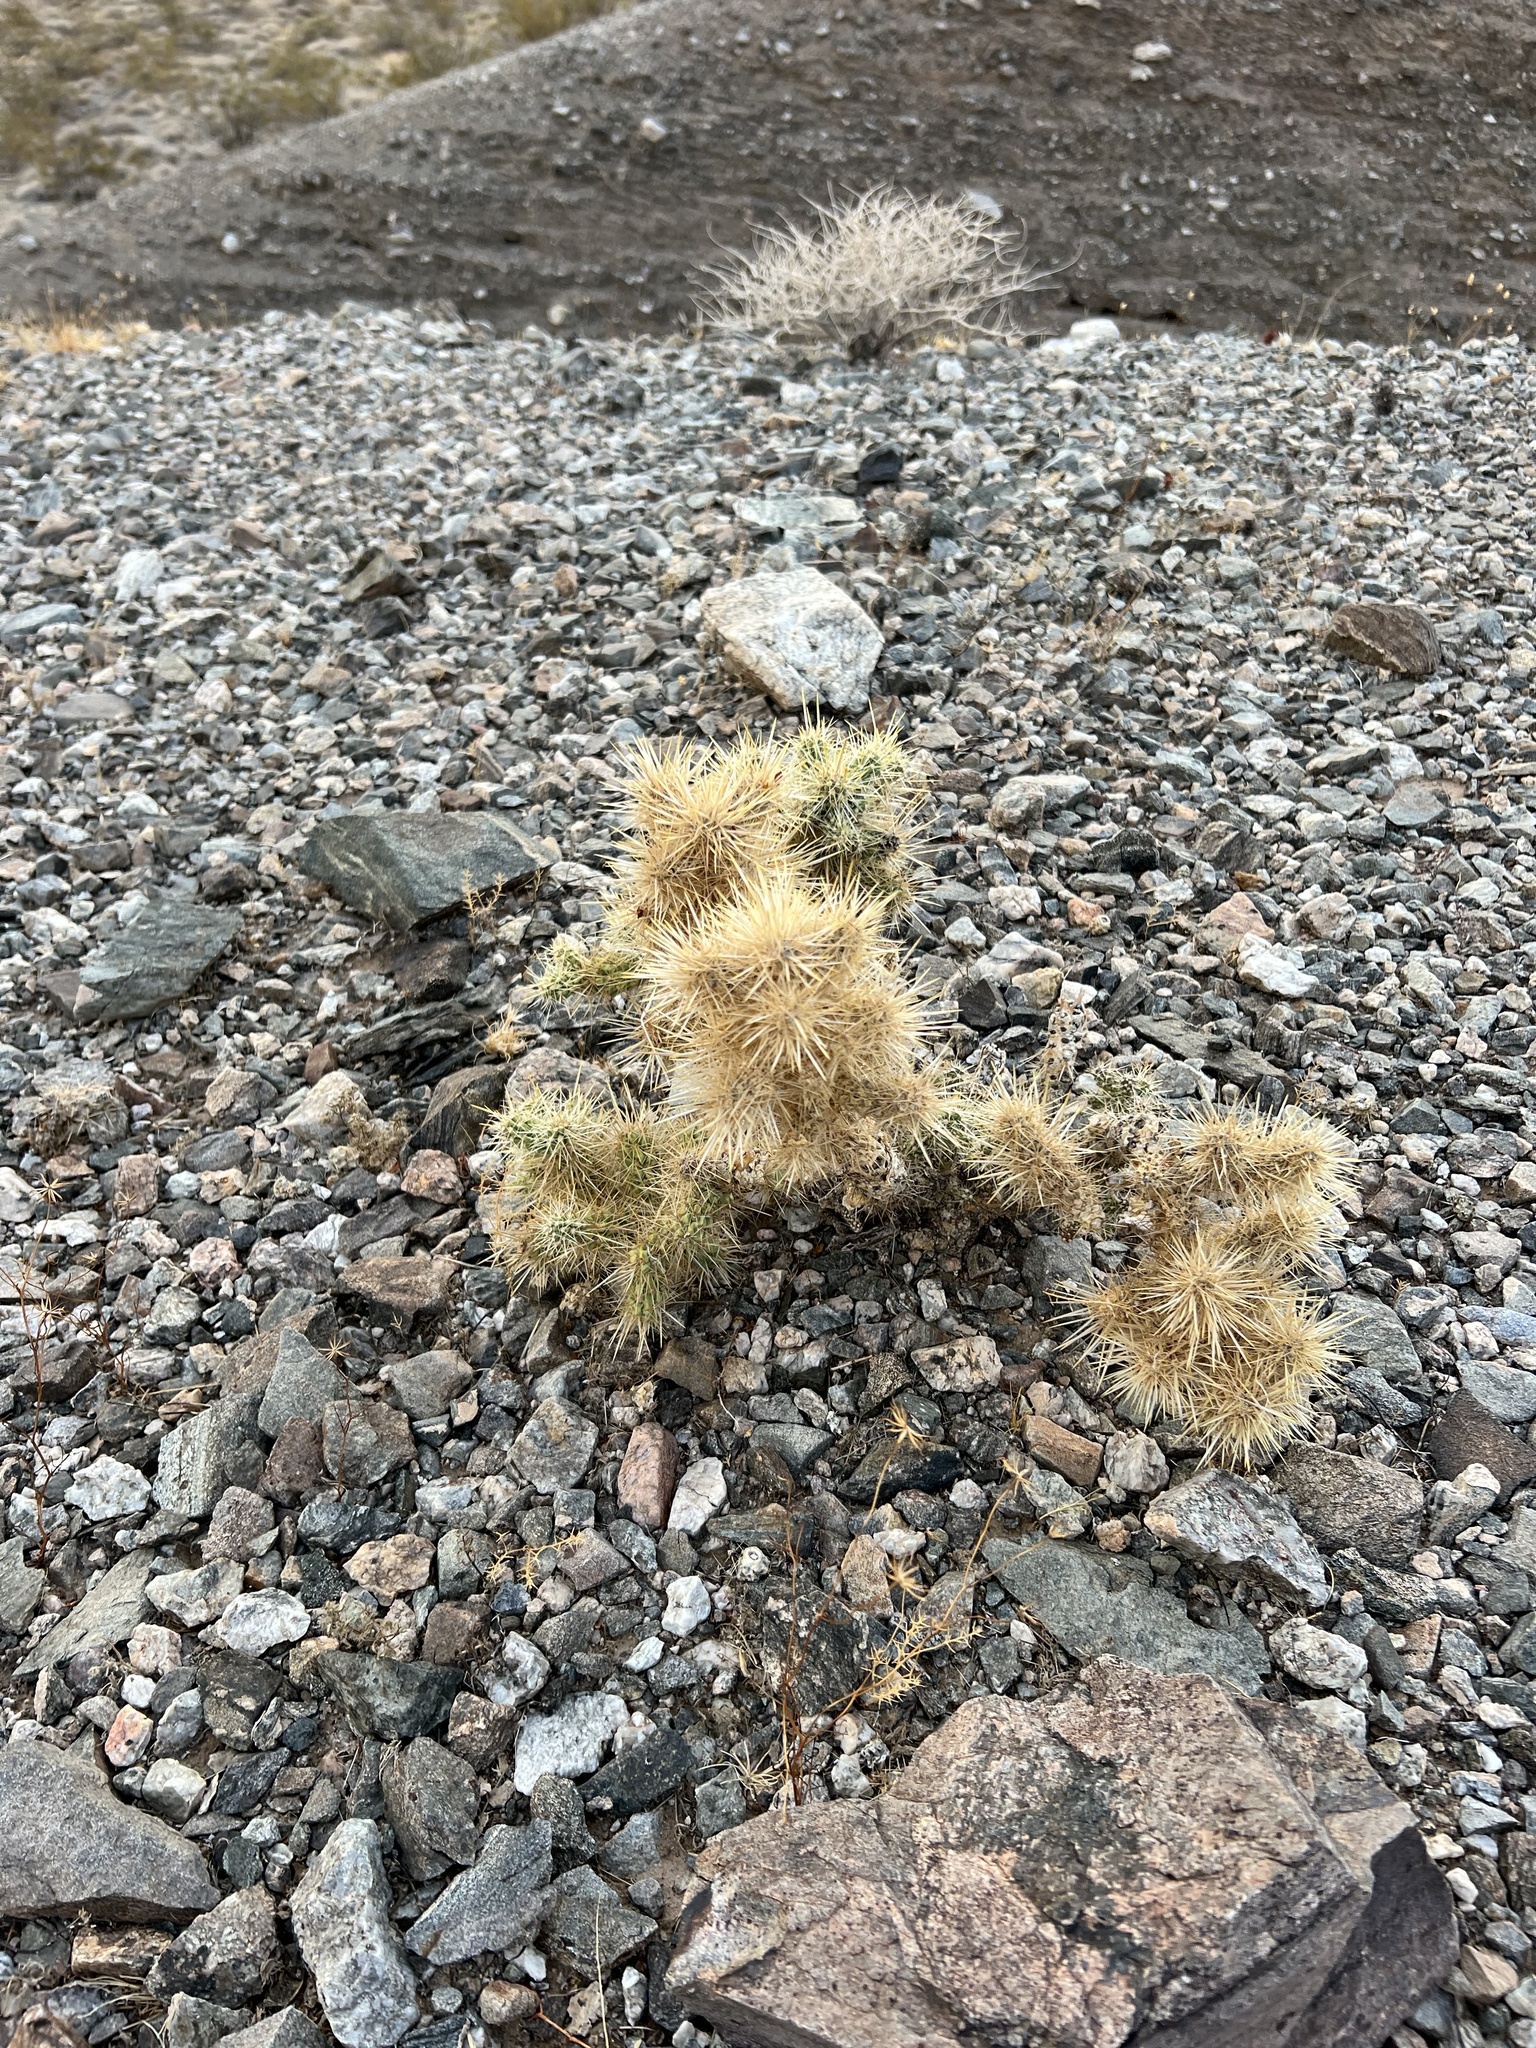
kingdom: Plantae
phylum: Tracheophyta
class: Magnoliopsida
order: Caryophyllales
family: Cactaceae
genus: Cylindropuntia
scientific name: Cylindropuntia echinocarpa
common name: Ground cholla
